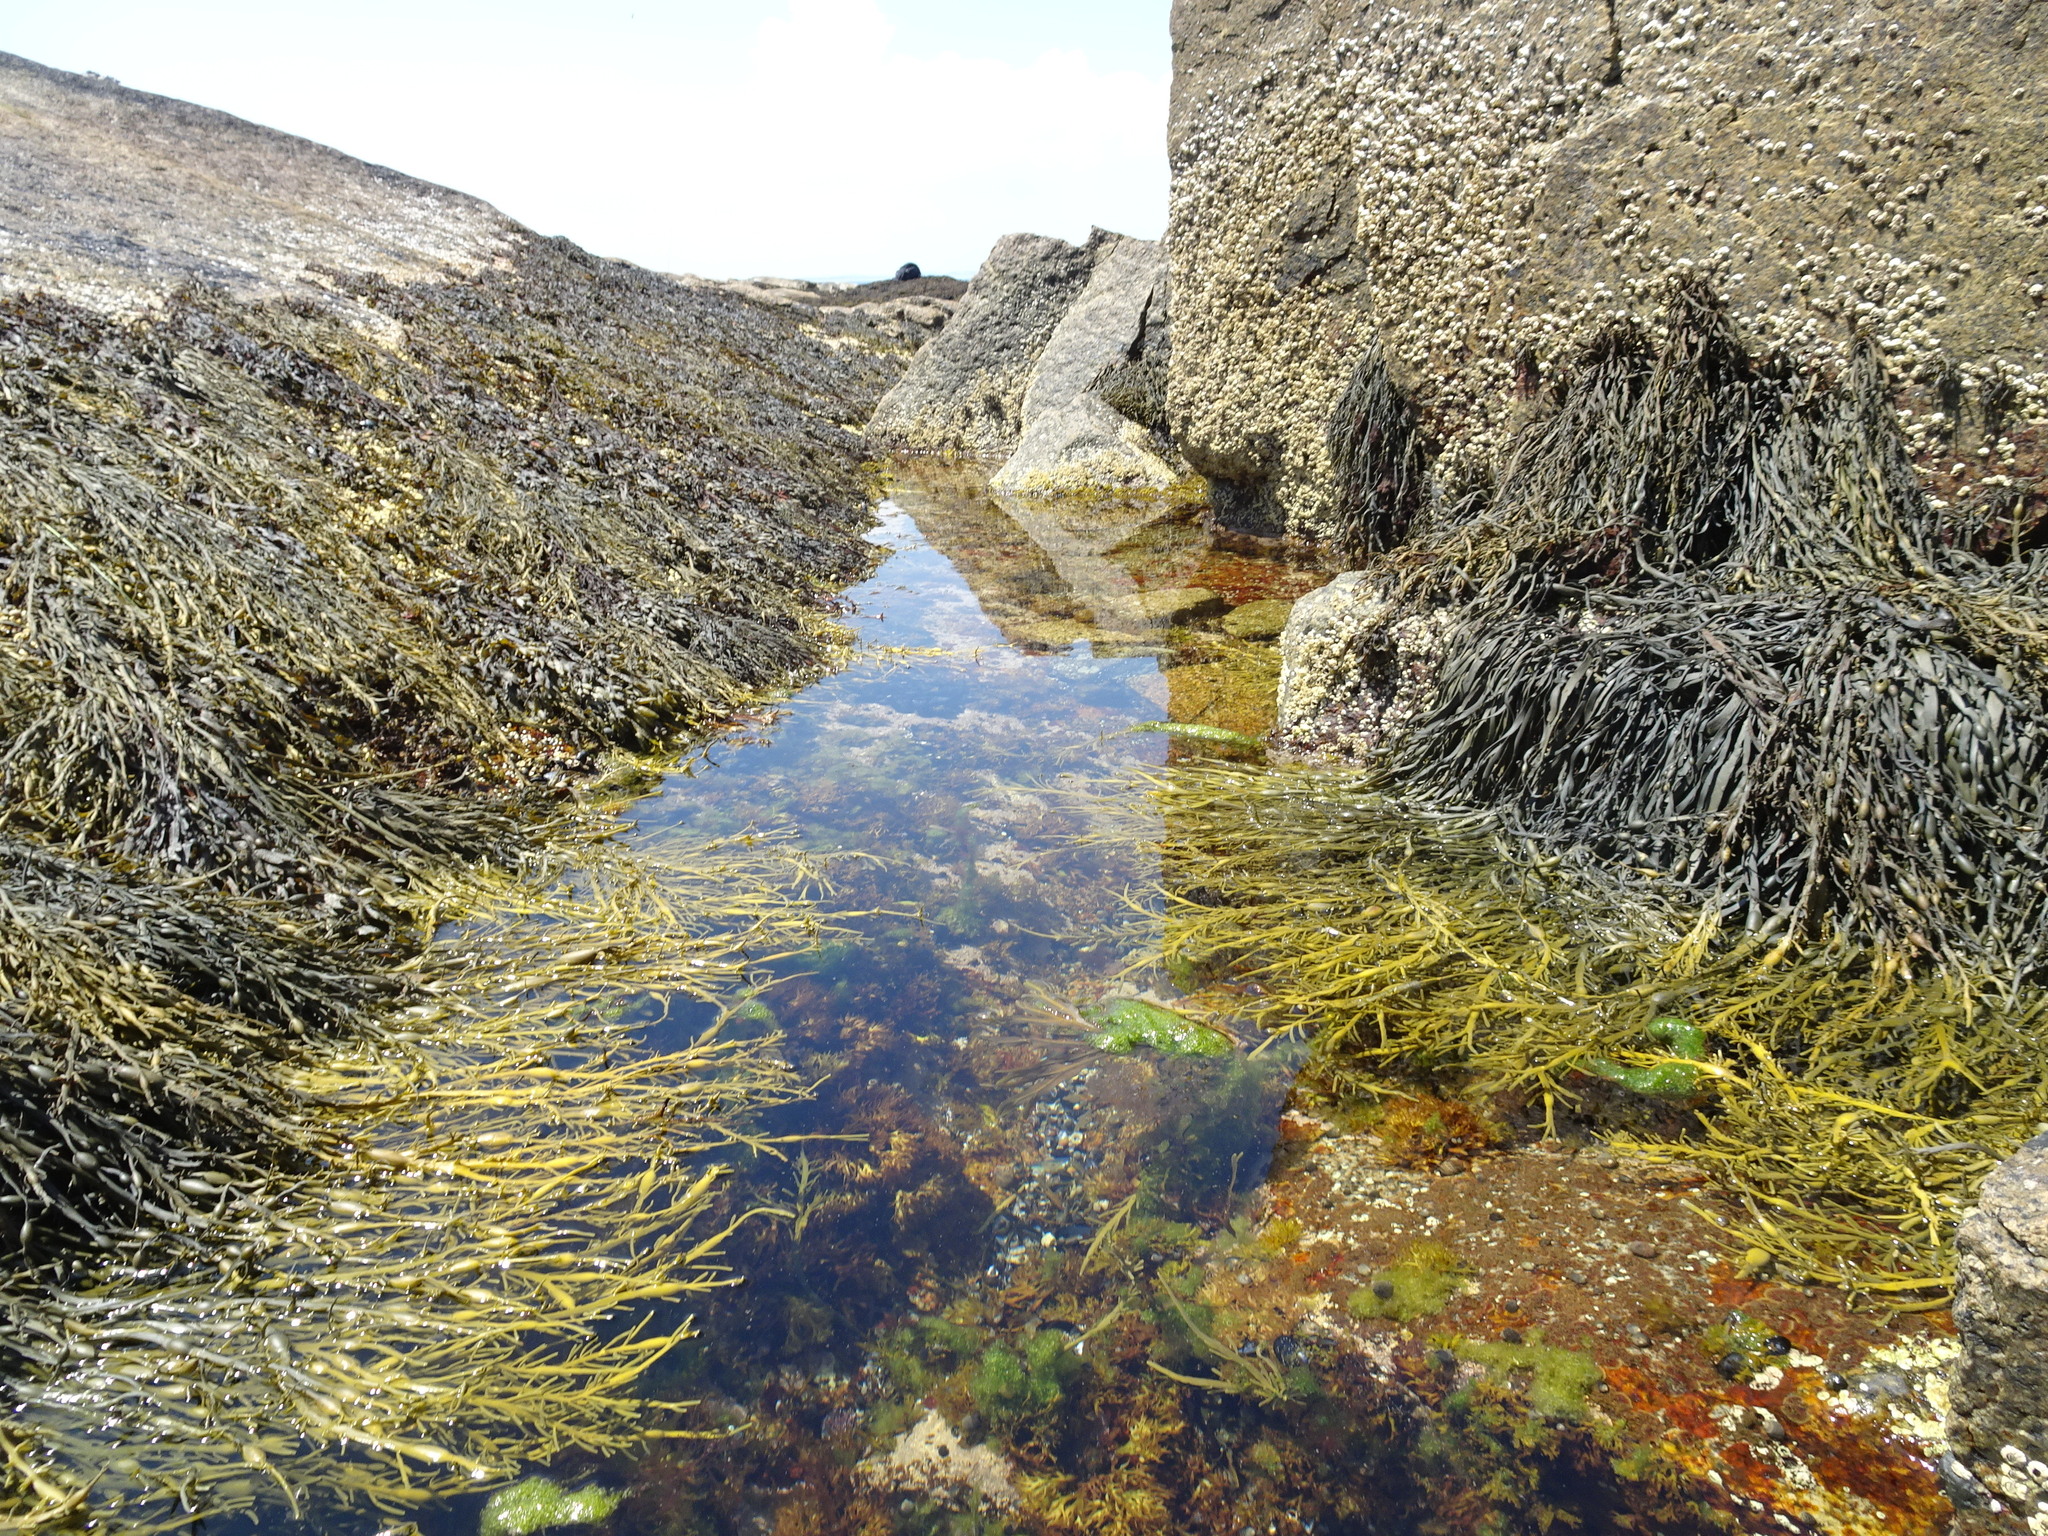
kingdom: Chromista
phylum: Ochrophyta
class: Phaeophyceae
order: Fucales
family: Fucaceae
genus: Ascophyllum
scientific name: Ascophyllum nodosum
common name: Knotted wrack
